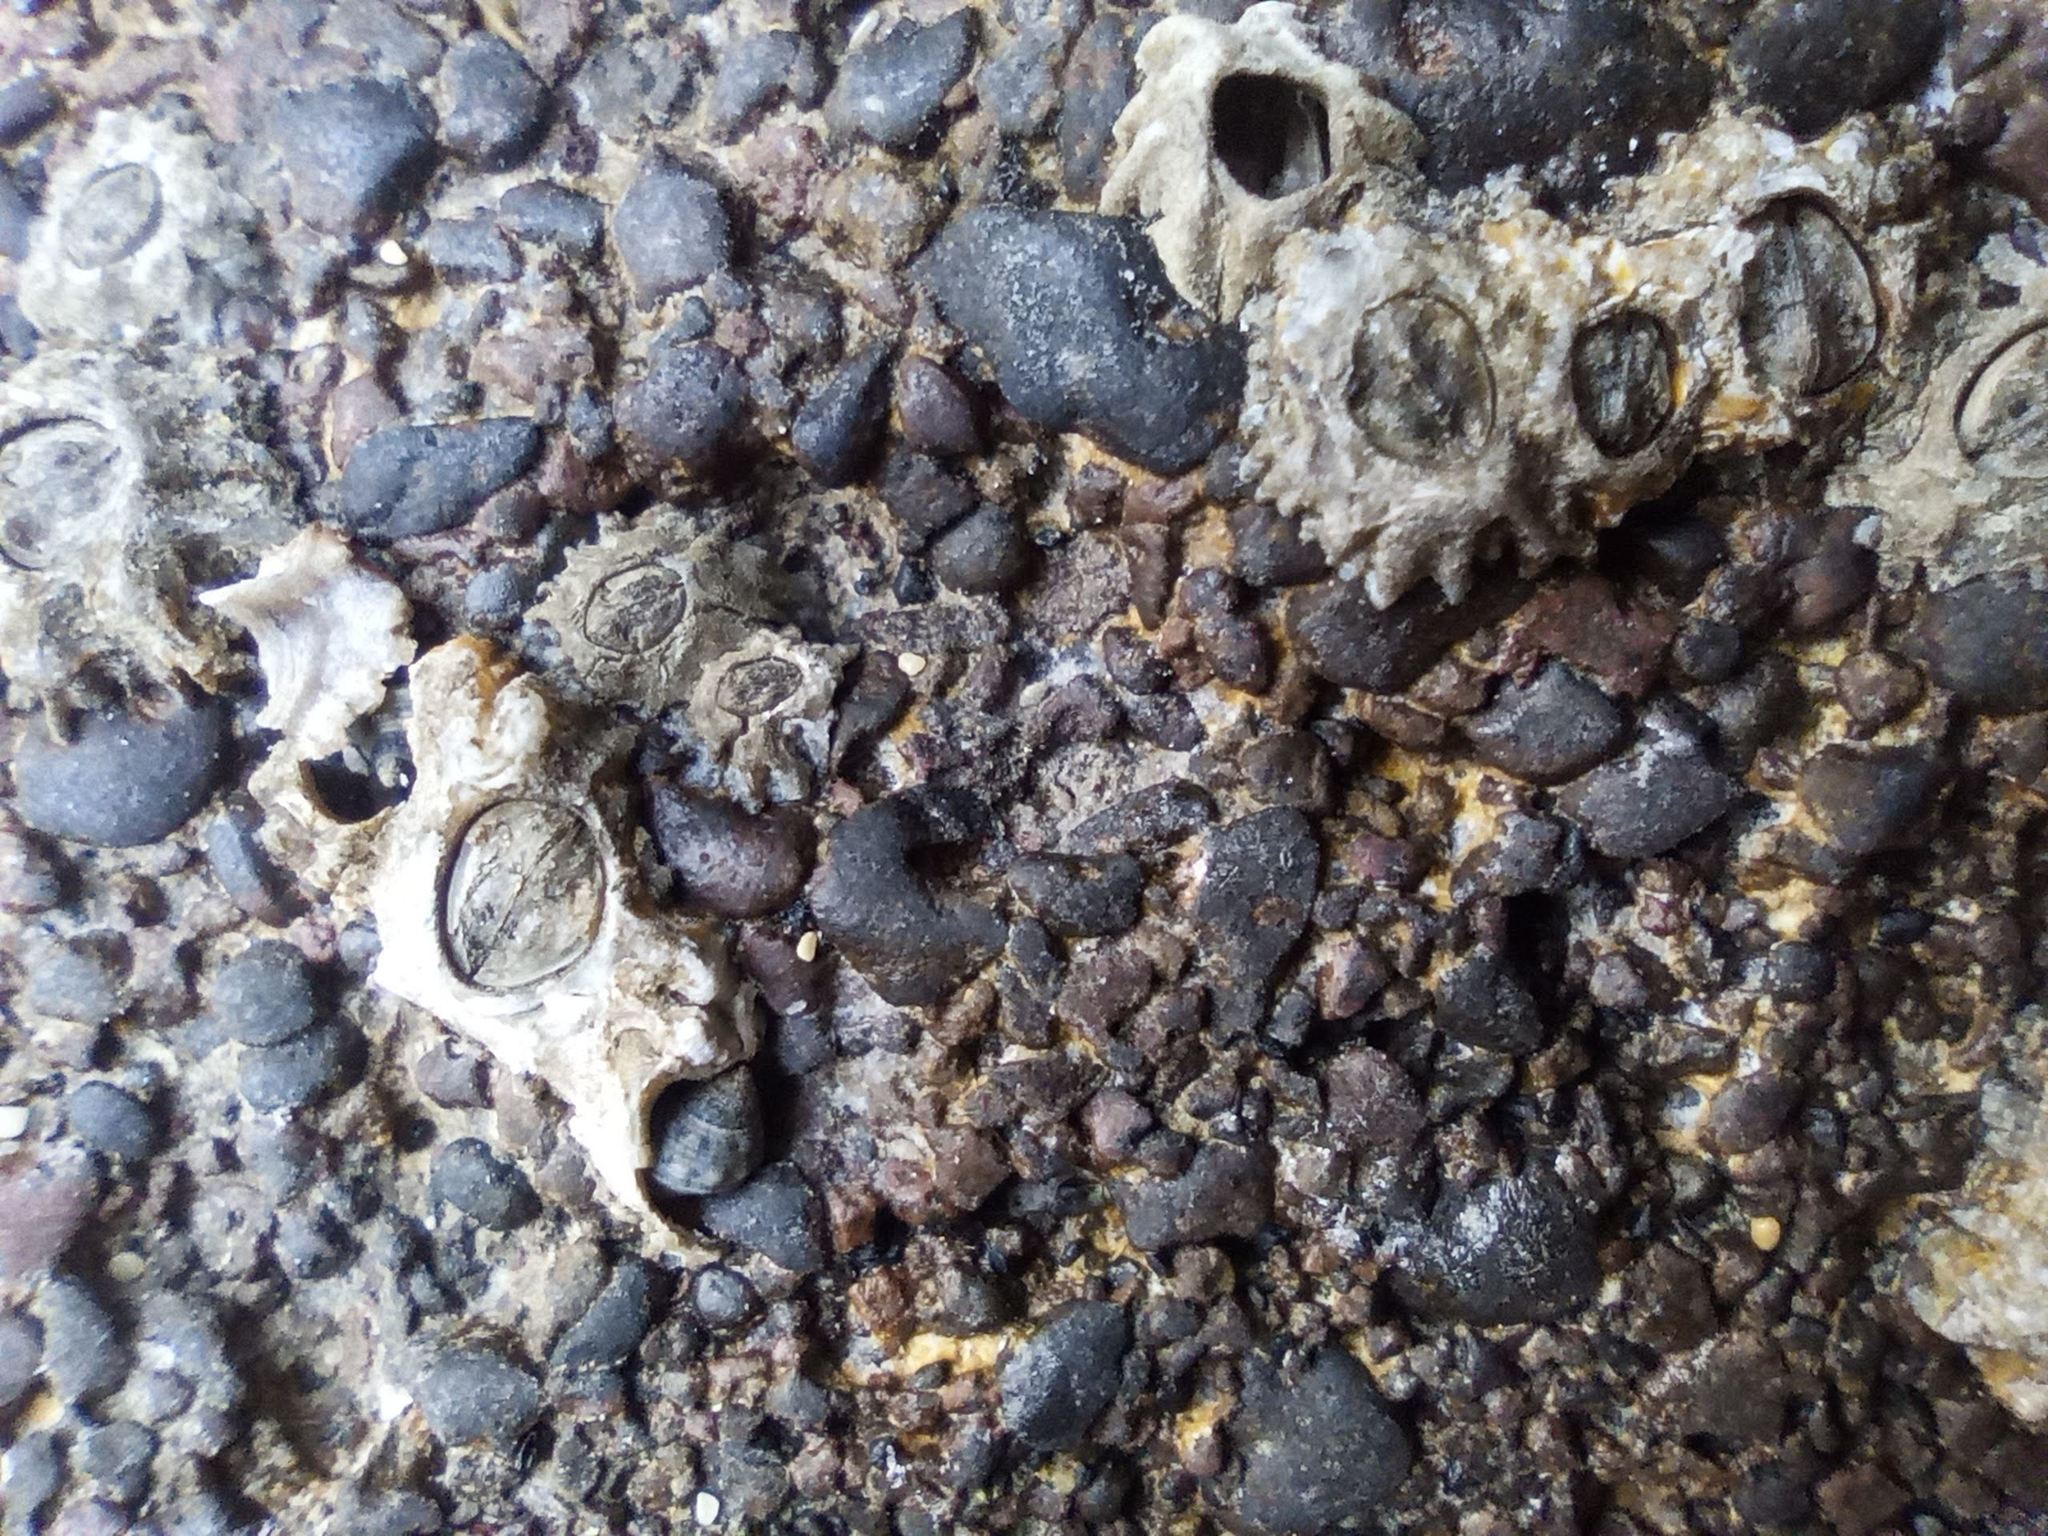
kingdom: Animalia
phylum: Arthropoda
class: Maxillopoda
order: Sessilia
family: Chthamalidae
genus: Chthamalus
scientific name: Chthamalus stellatus
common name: Poli's stellate barnacle
